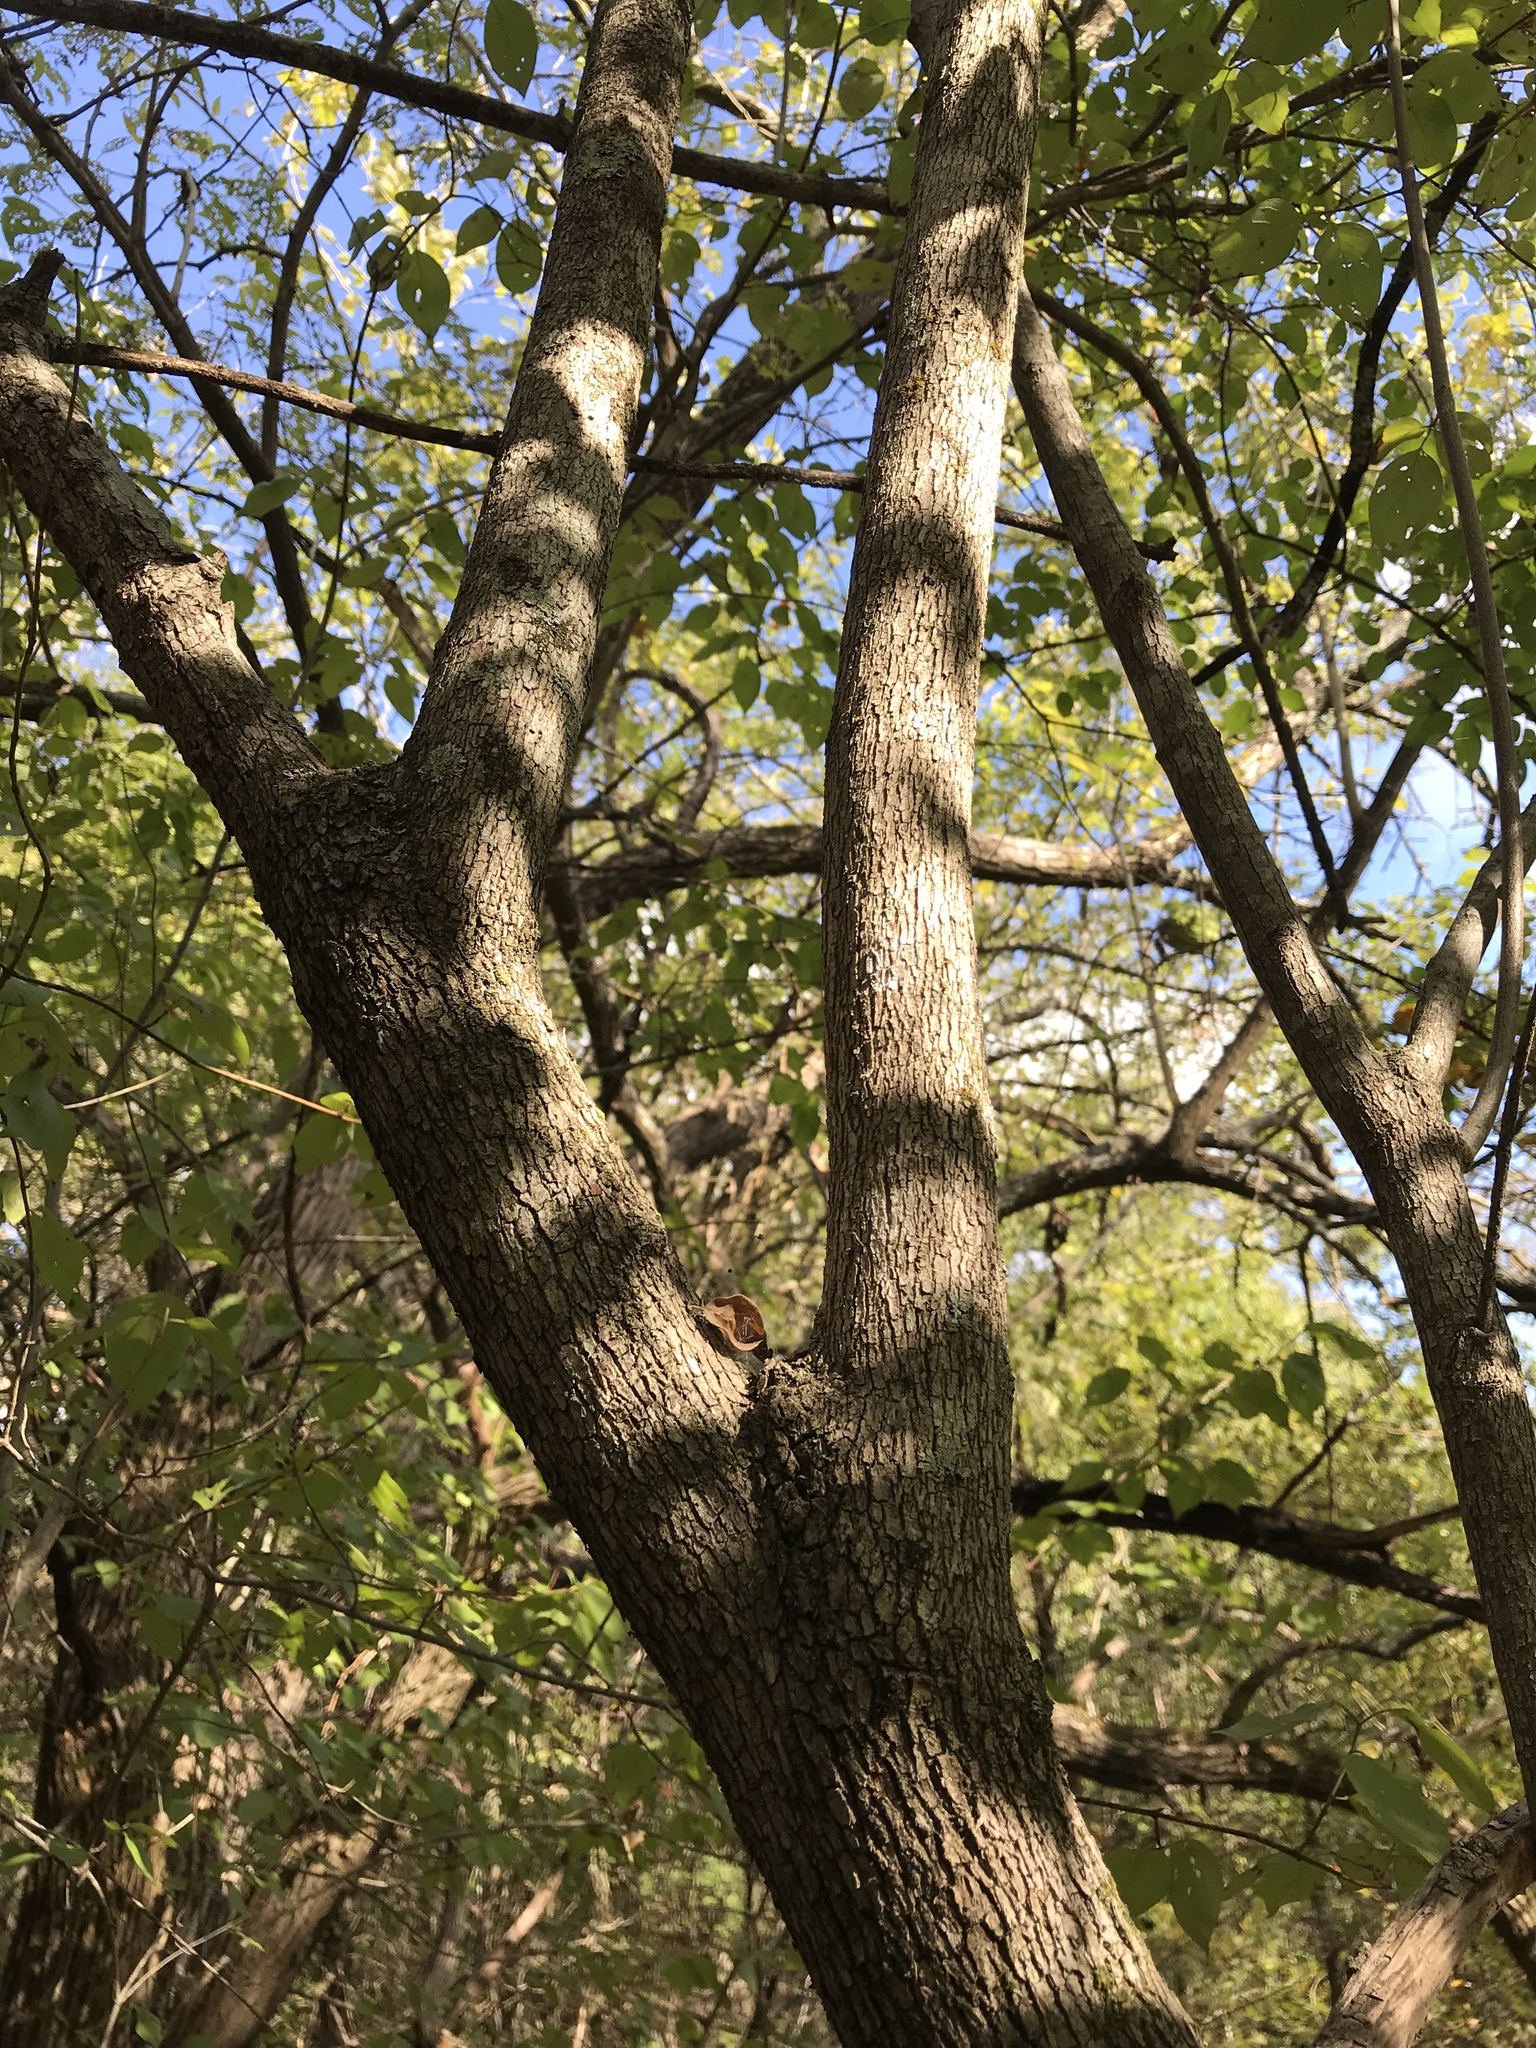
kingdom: Plantae
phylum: Tracheophyta
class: Magnoliopsida
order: Cornales
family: Cornaceae
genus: Cornus
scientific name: Cornus drummondii
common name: Rough-leaf dogwood
